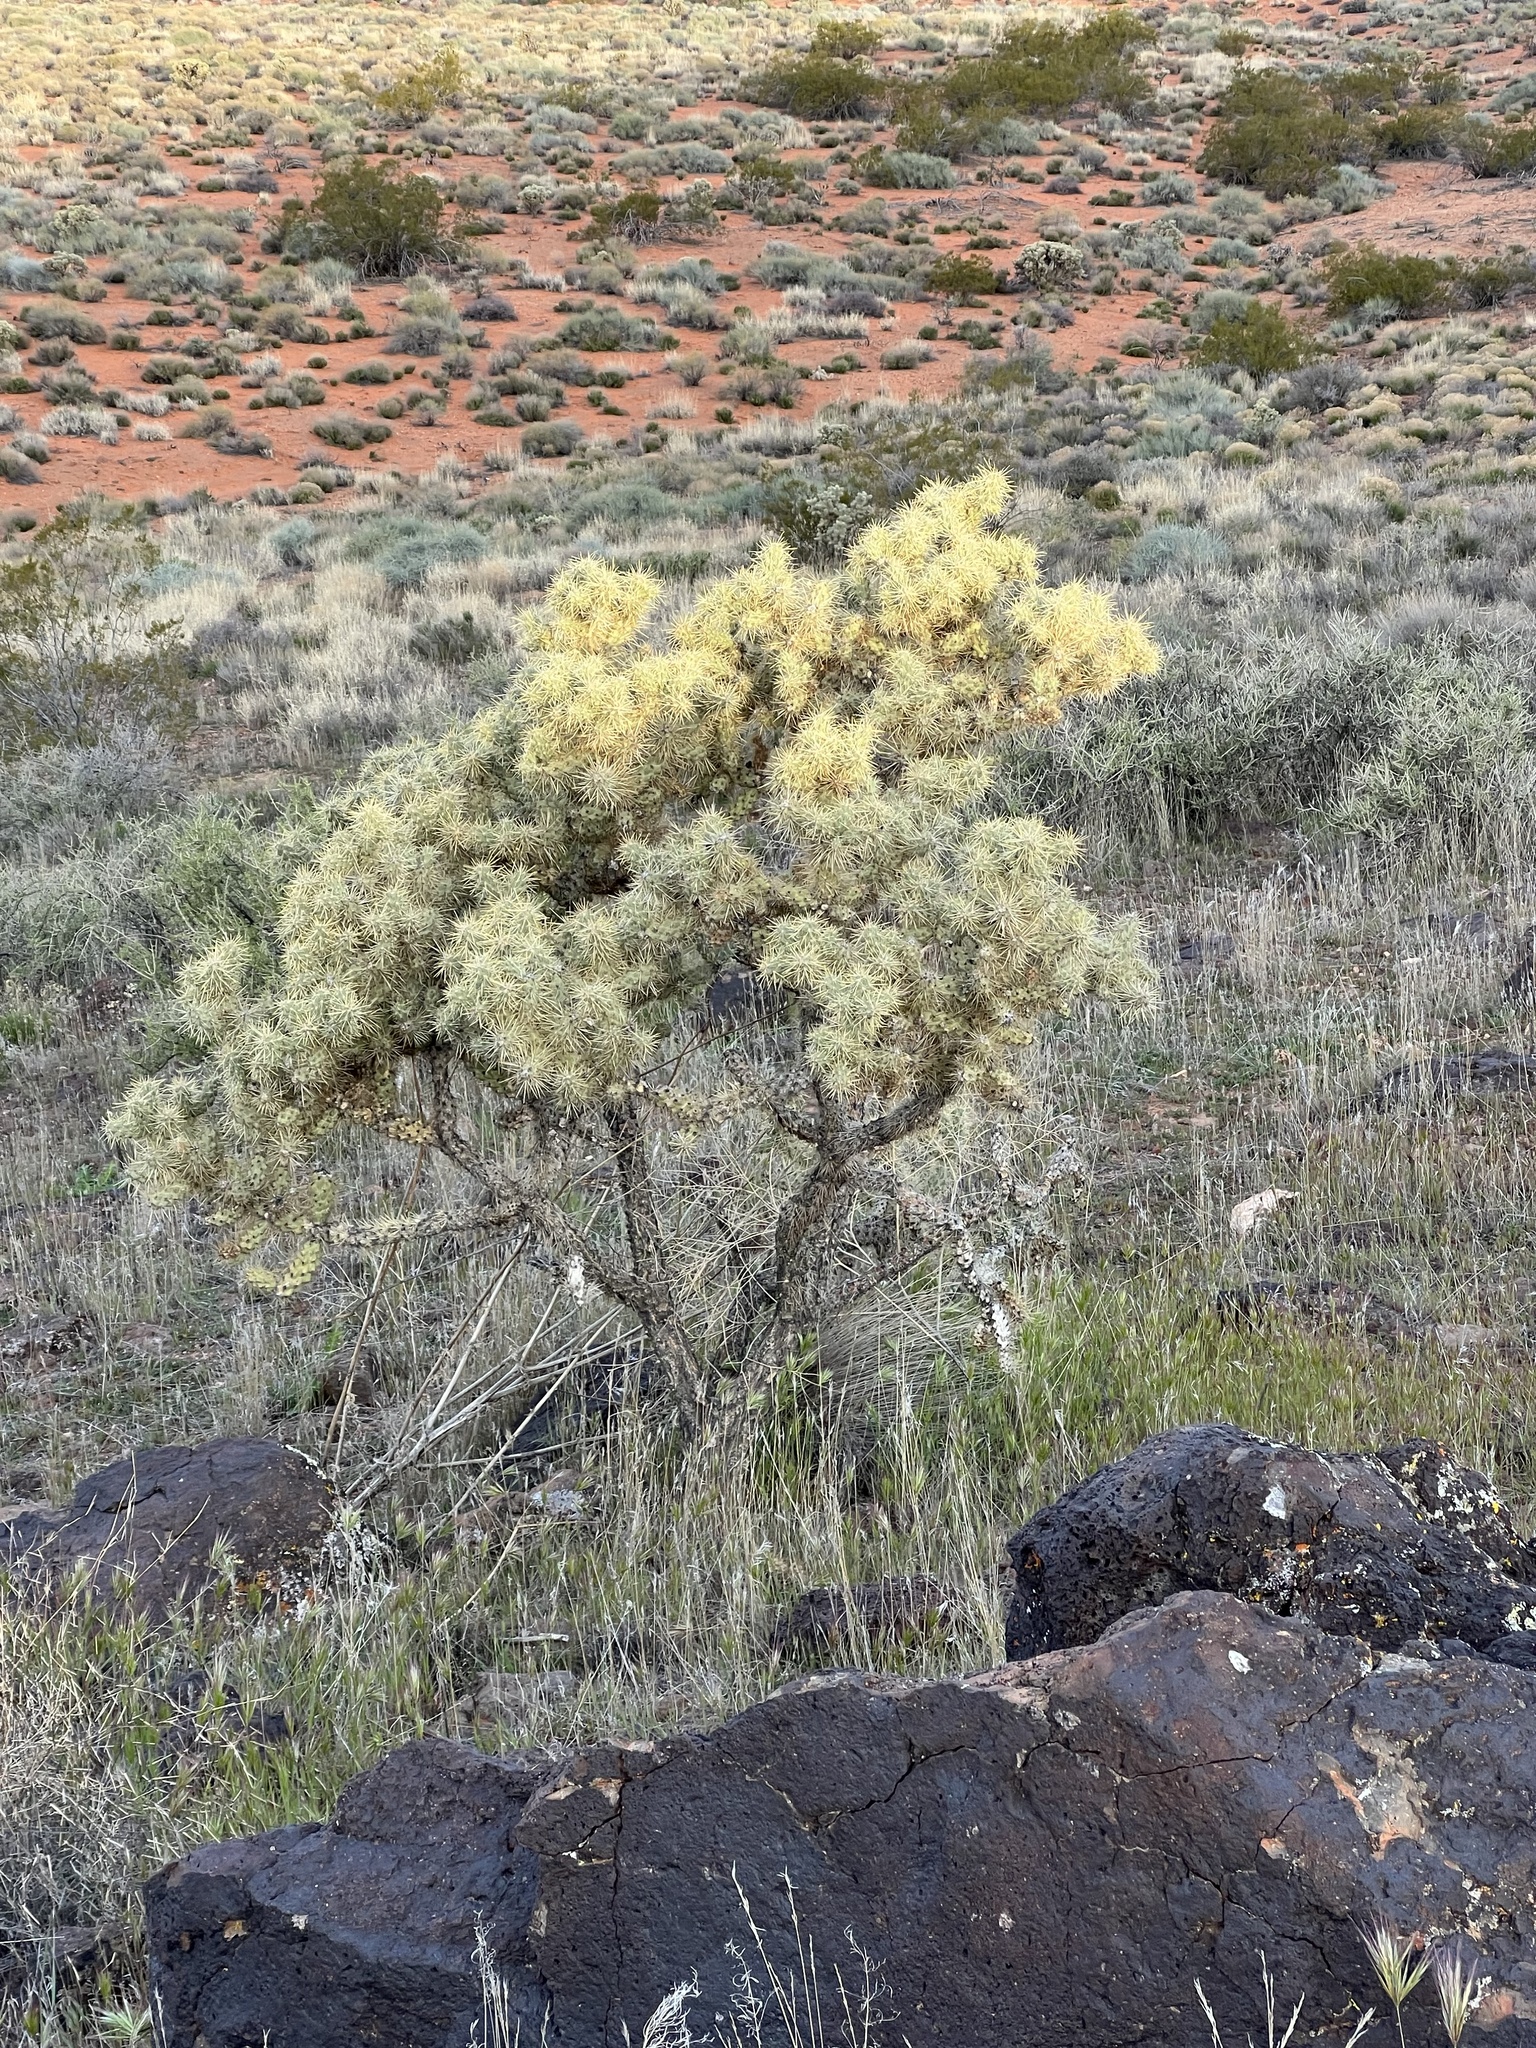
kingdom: Plantae
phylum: Tracheophyta
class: Magnoliopsida
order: Caryophyllales
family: Cactaceae
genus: Cylindropuntia
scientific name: Cylindropuntia echinocarpa
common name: Ground cholla
